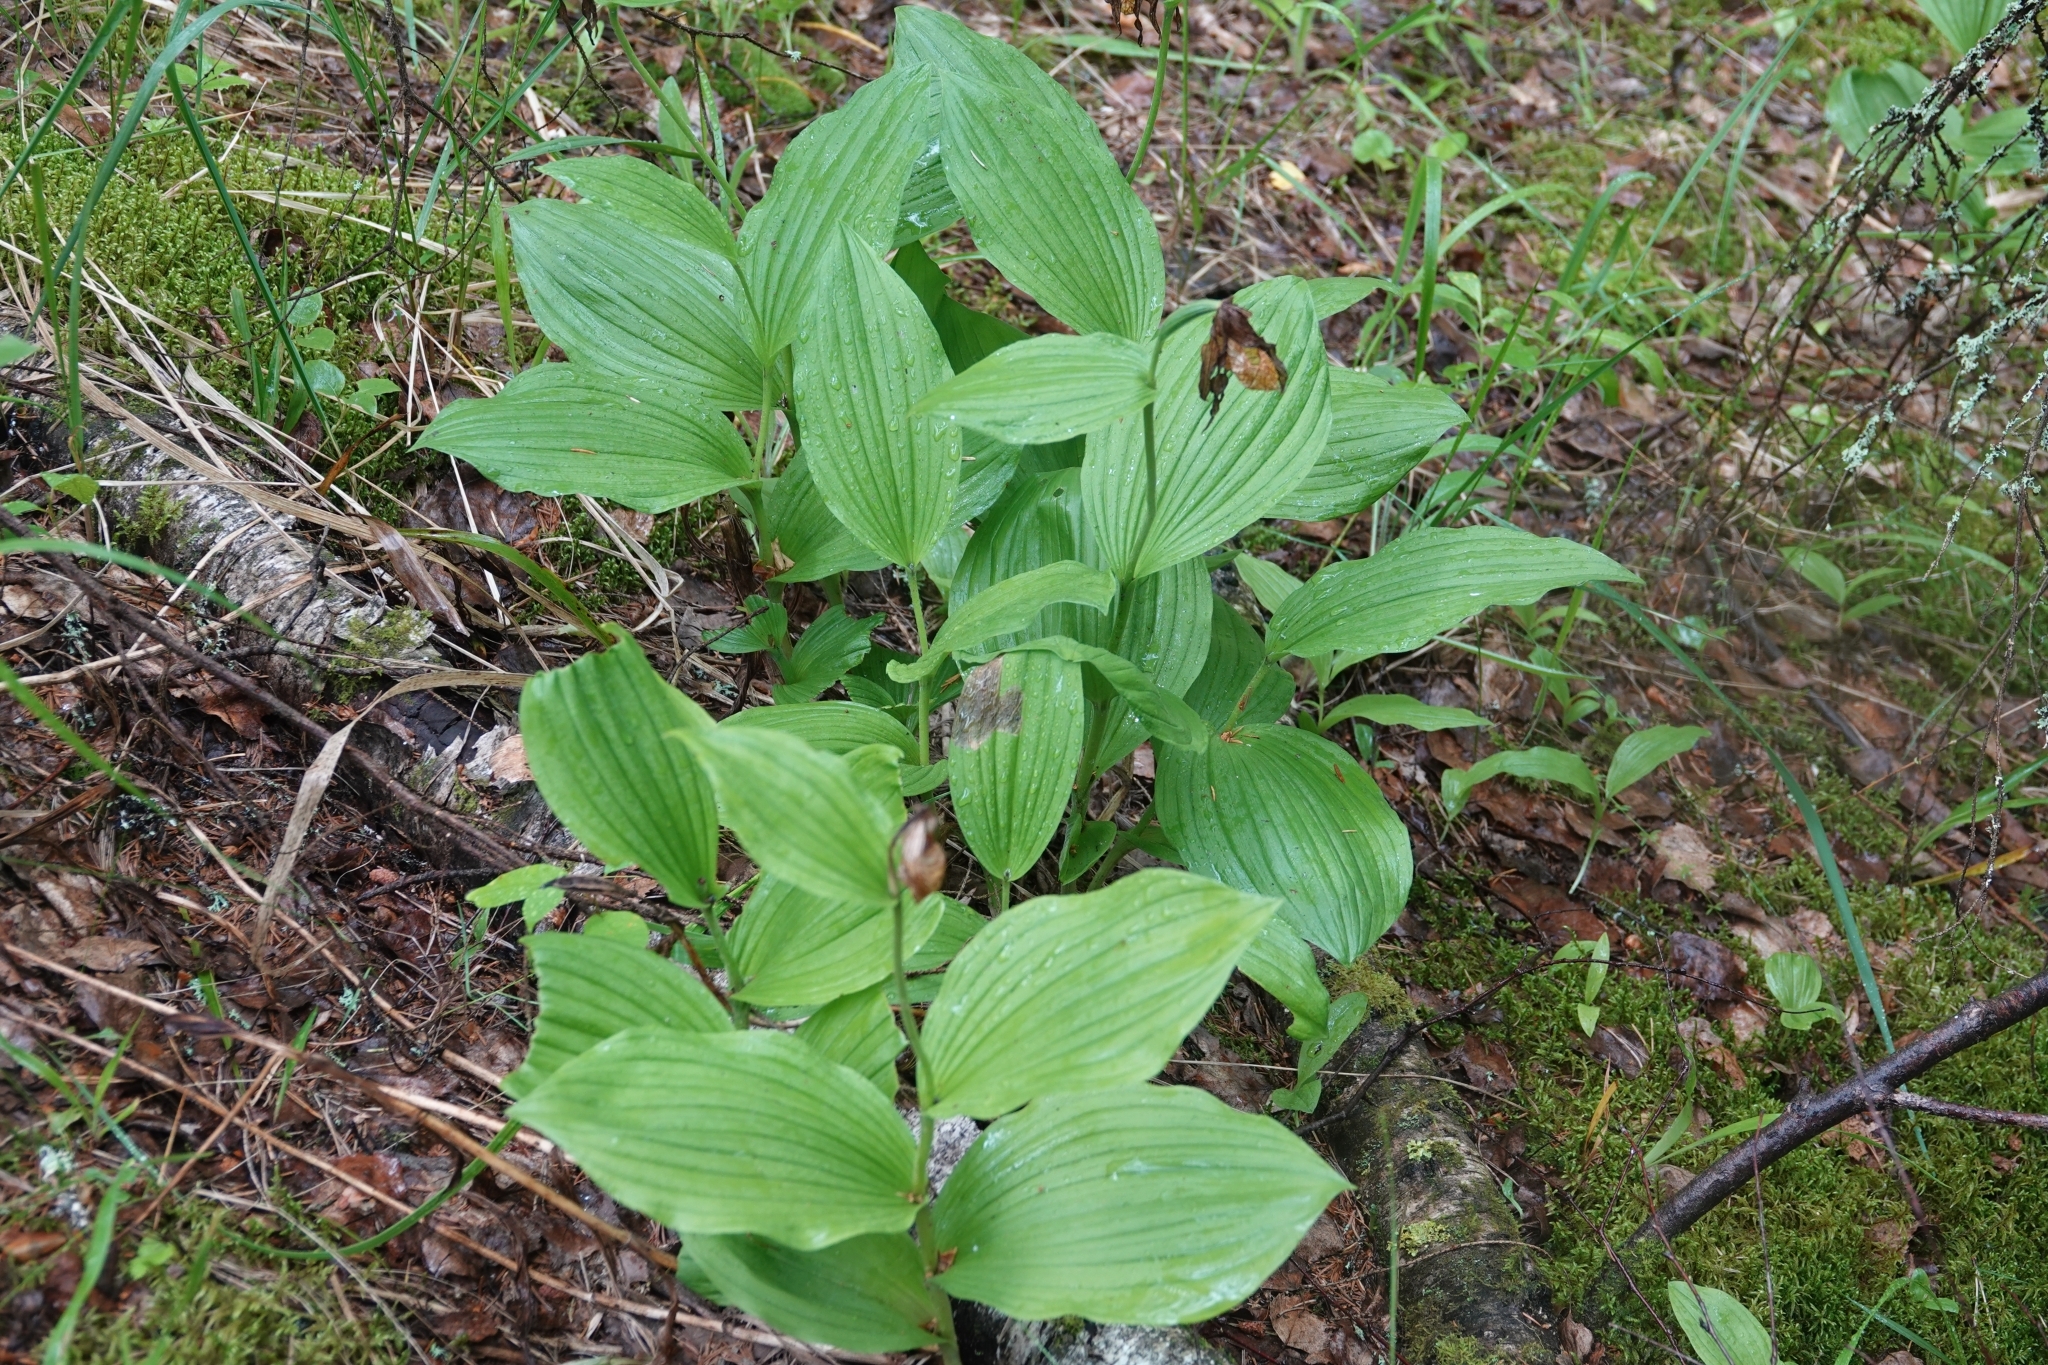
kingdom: Plantae
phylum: Tracheophyta
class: Liliopsida
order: Asparagales
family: Orchidaceae
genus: Cypripedium
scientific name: Cypripedium calceolus
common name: Lady's-slipper
